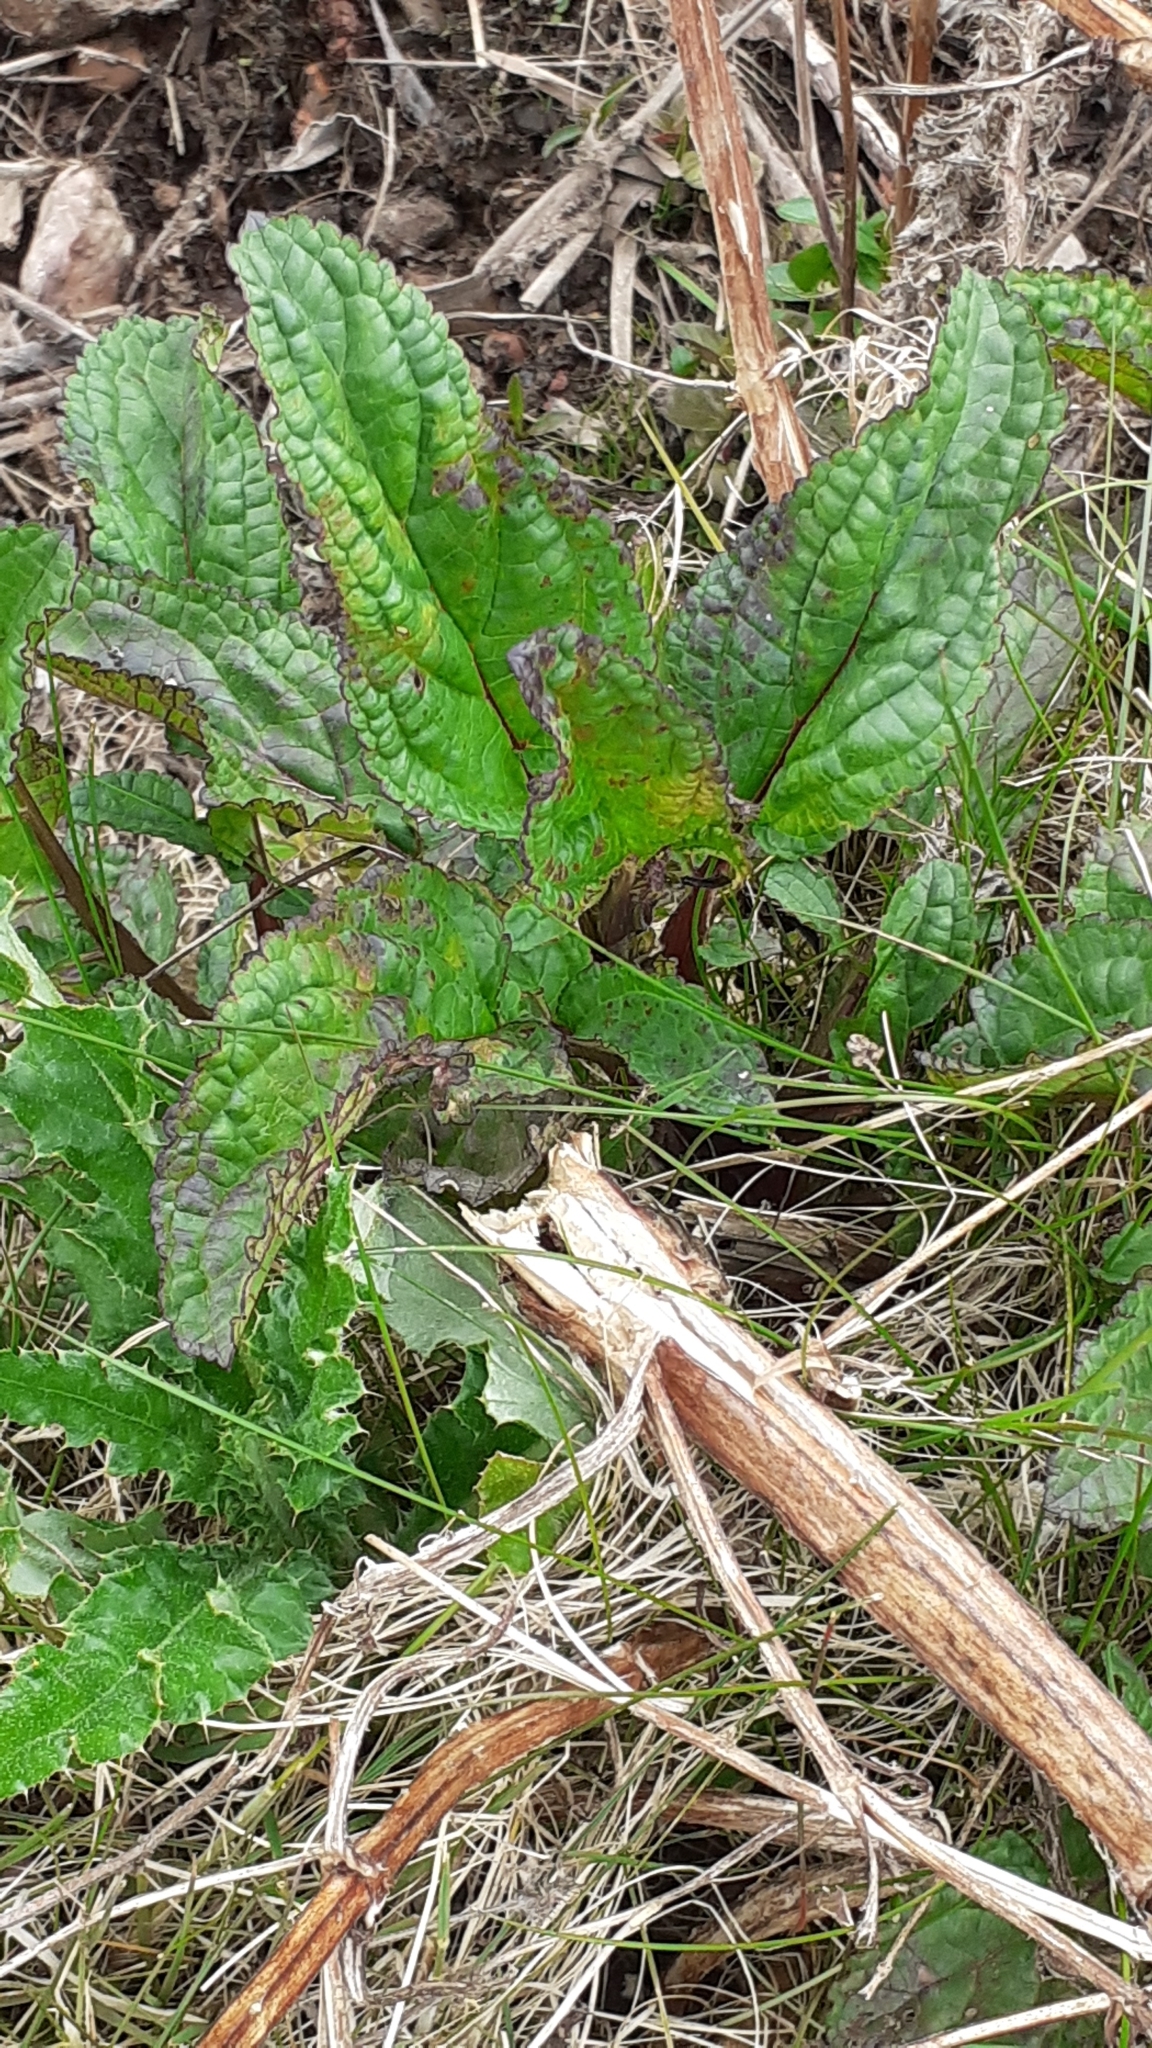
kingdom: Plantae
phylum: Tracheophyta
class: Magnoliopsida
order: Lamiales
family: Scrophulariaceae
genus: Scrophularia
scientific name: Scrophularia auriculata
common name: Water betony
